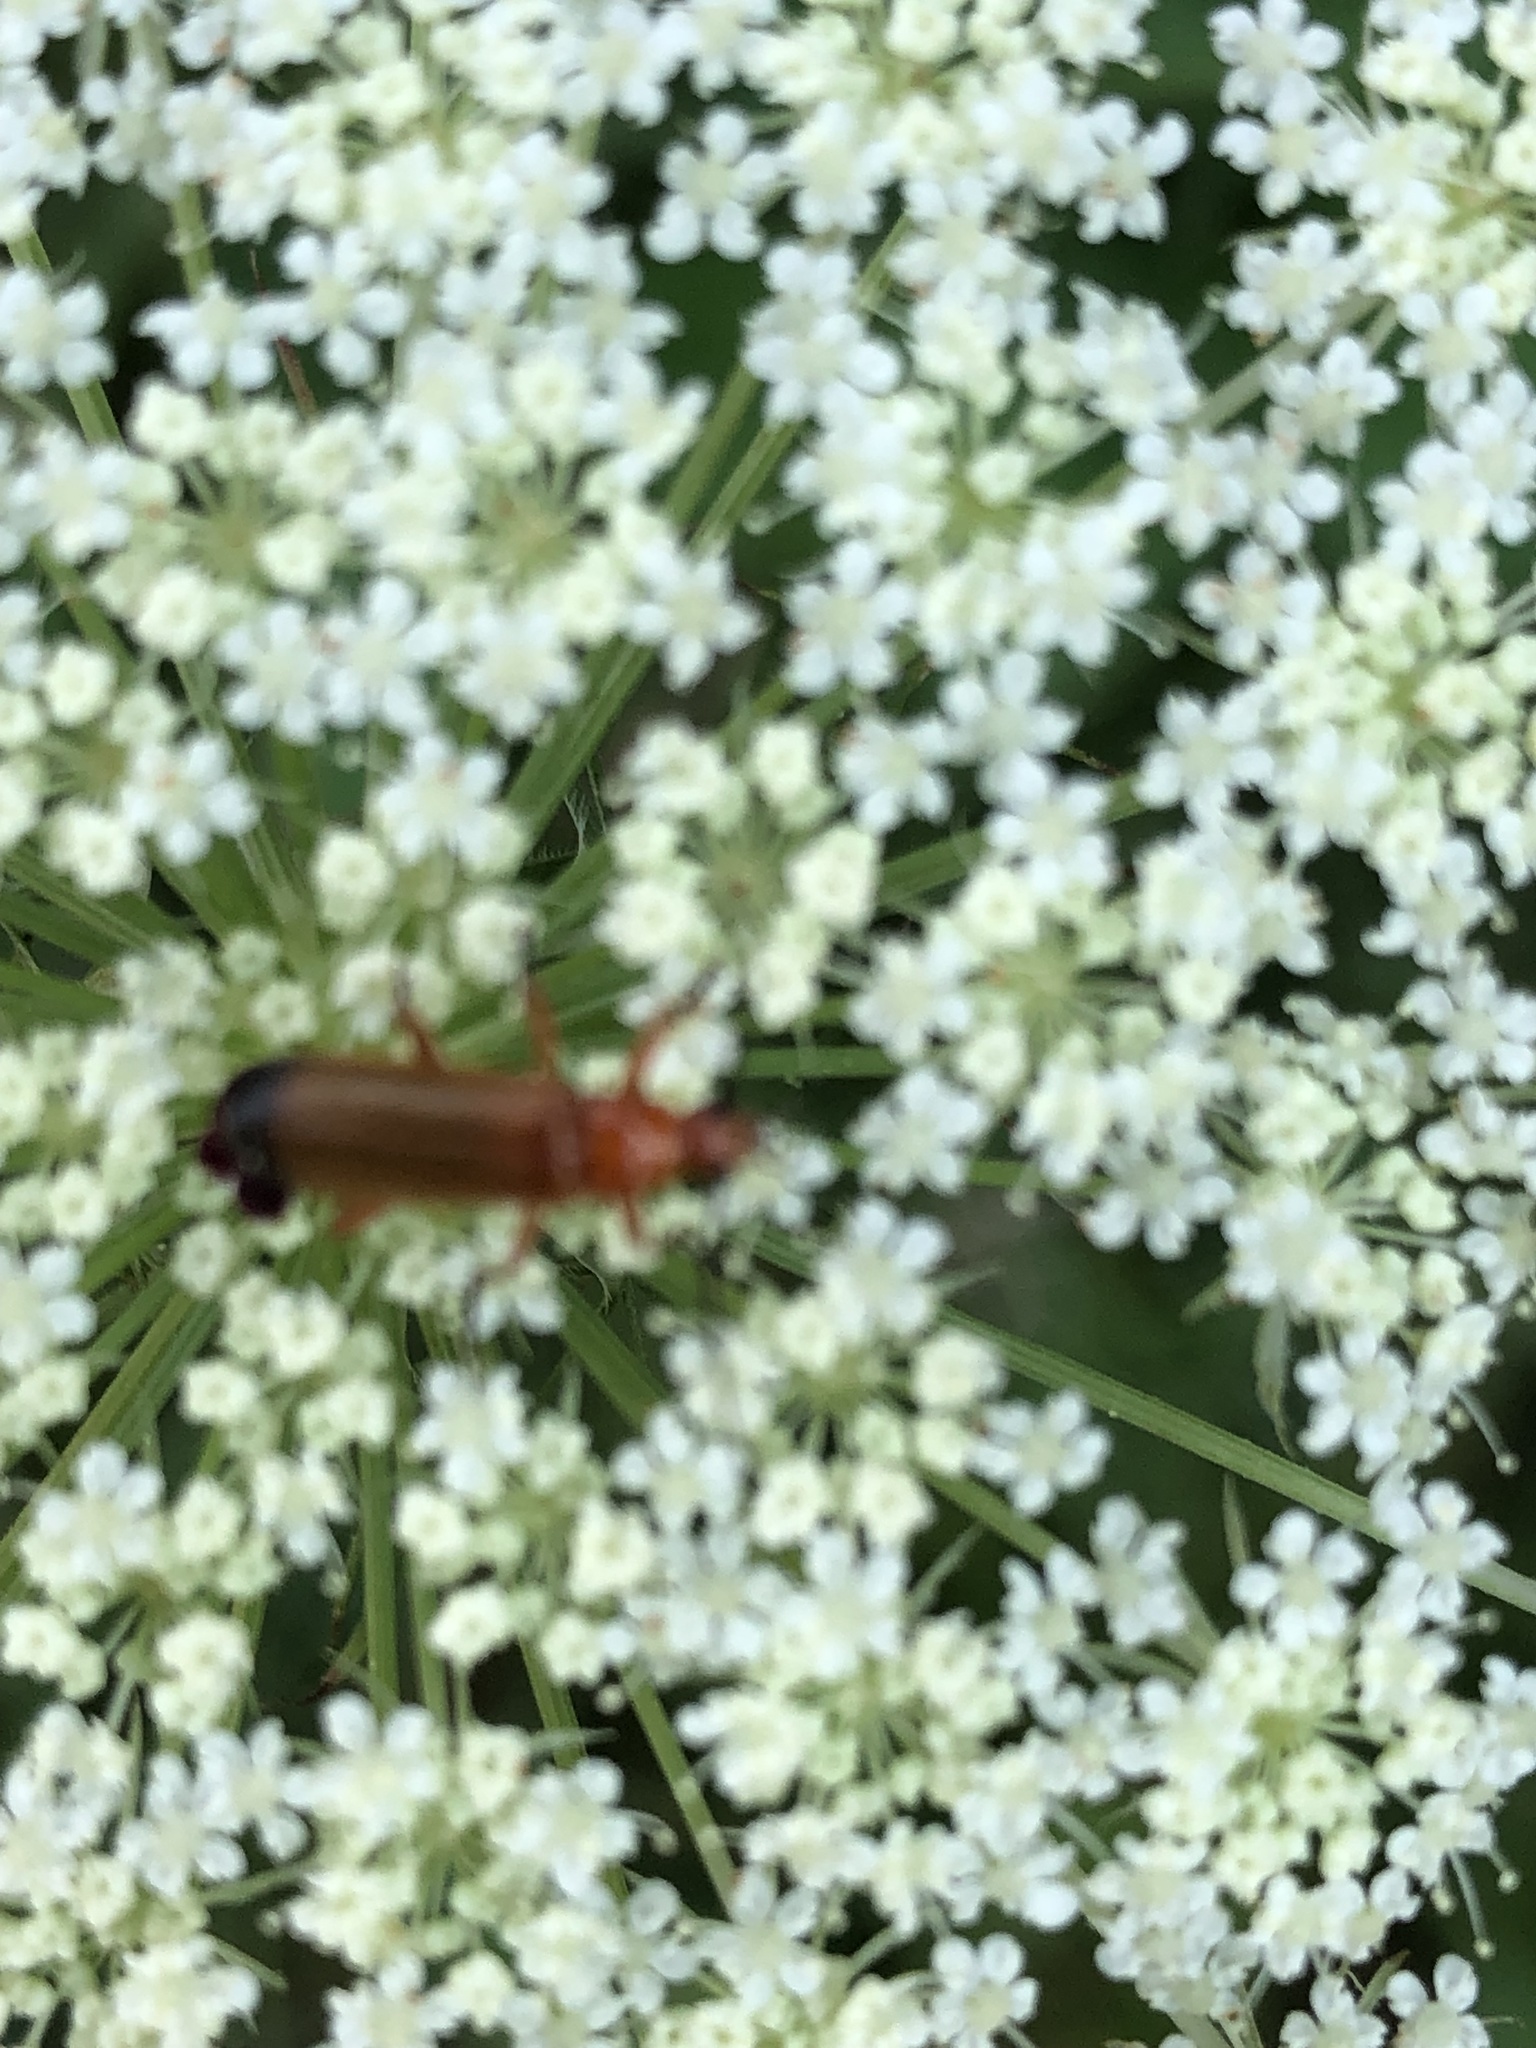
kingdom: Animalia
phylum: Arthropoda
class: Insecta
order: Coleoptera
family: Cantharidae
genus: Rhagonycha
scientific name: Rhagonycha fulva
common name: Common red soldier beetle
